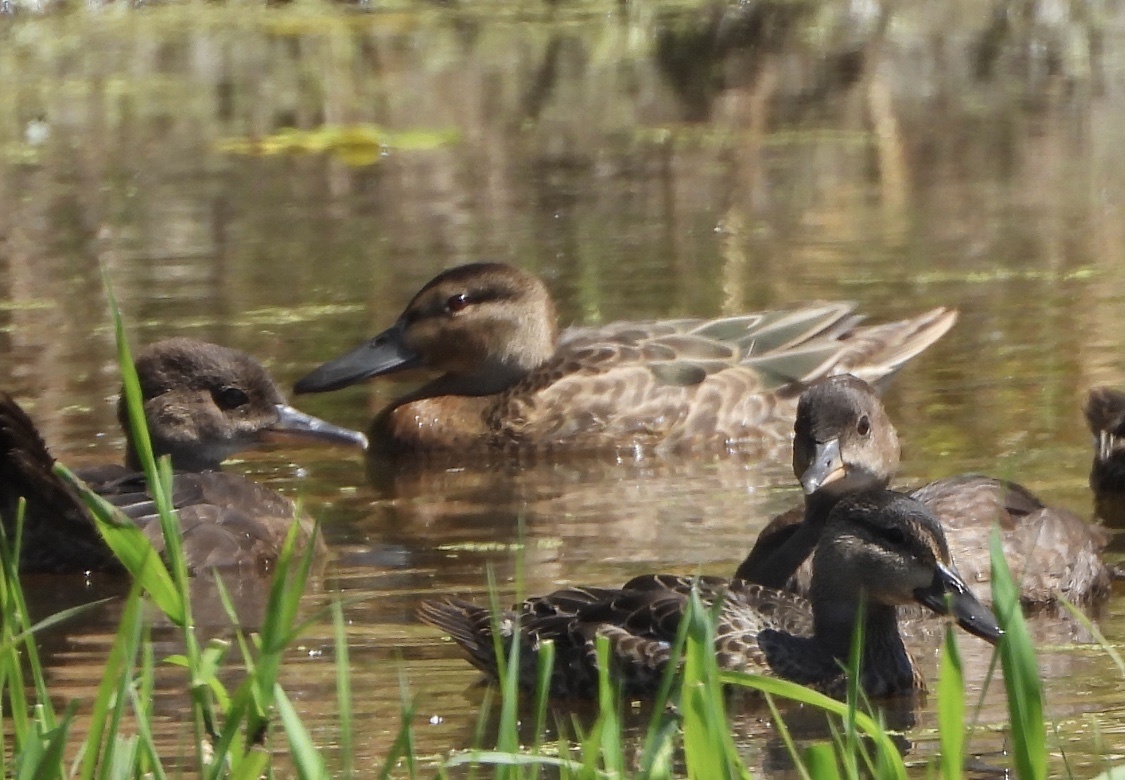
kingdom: Animalia
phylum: Chordata
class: Aves
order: Anseriformes
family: Anatidae
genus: Lophodytes
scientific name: Lophodytes cucullatus
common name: Hooded merganser
